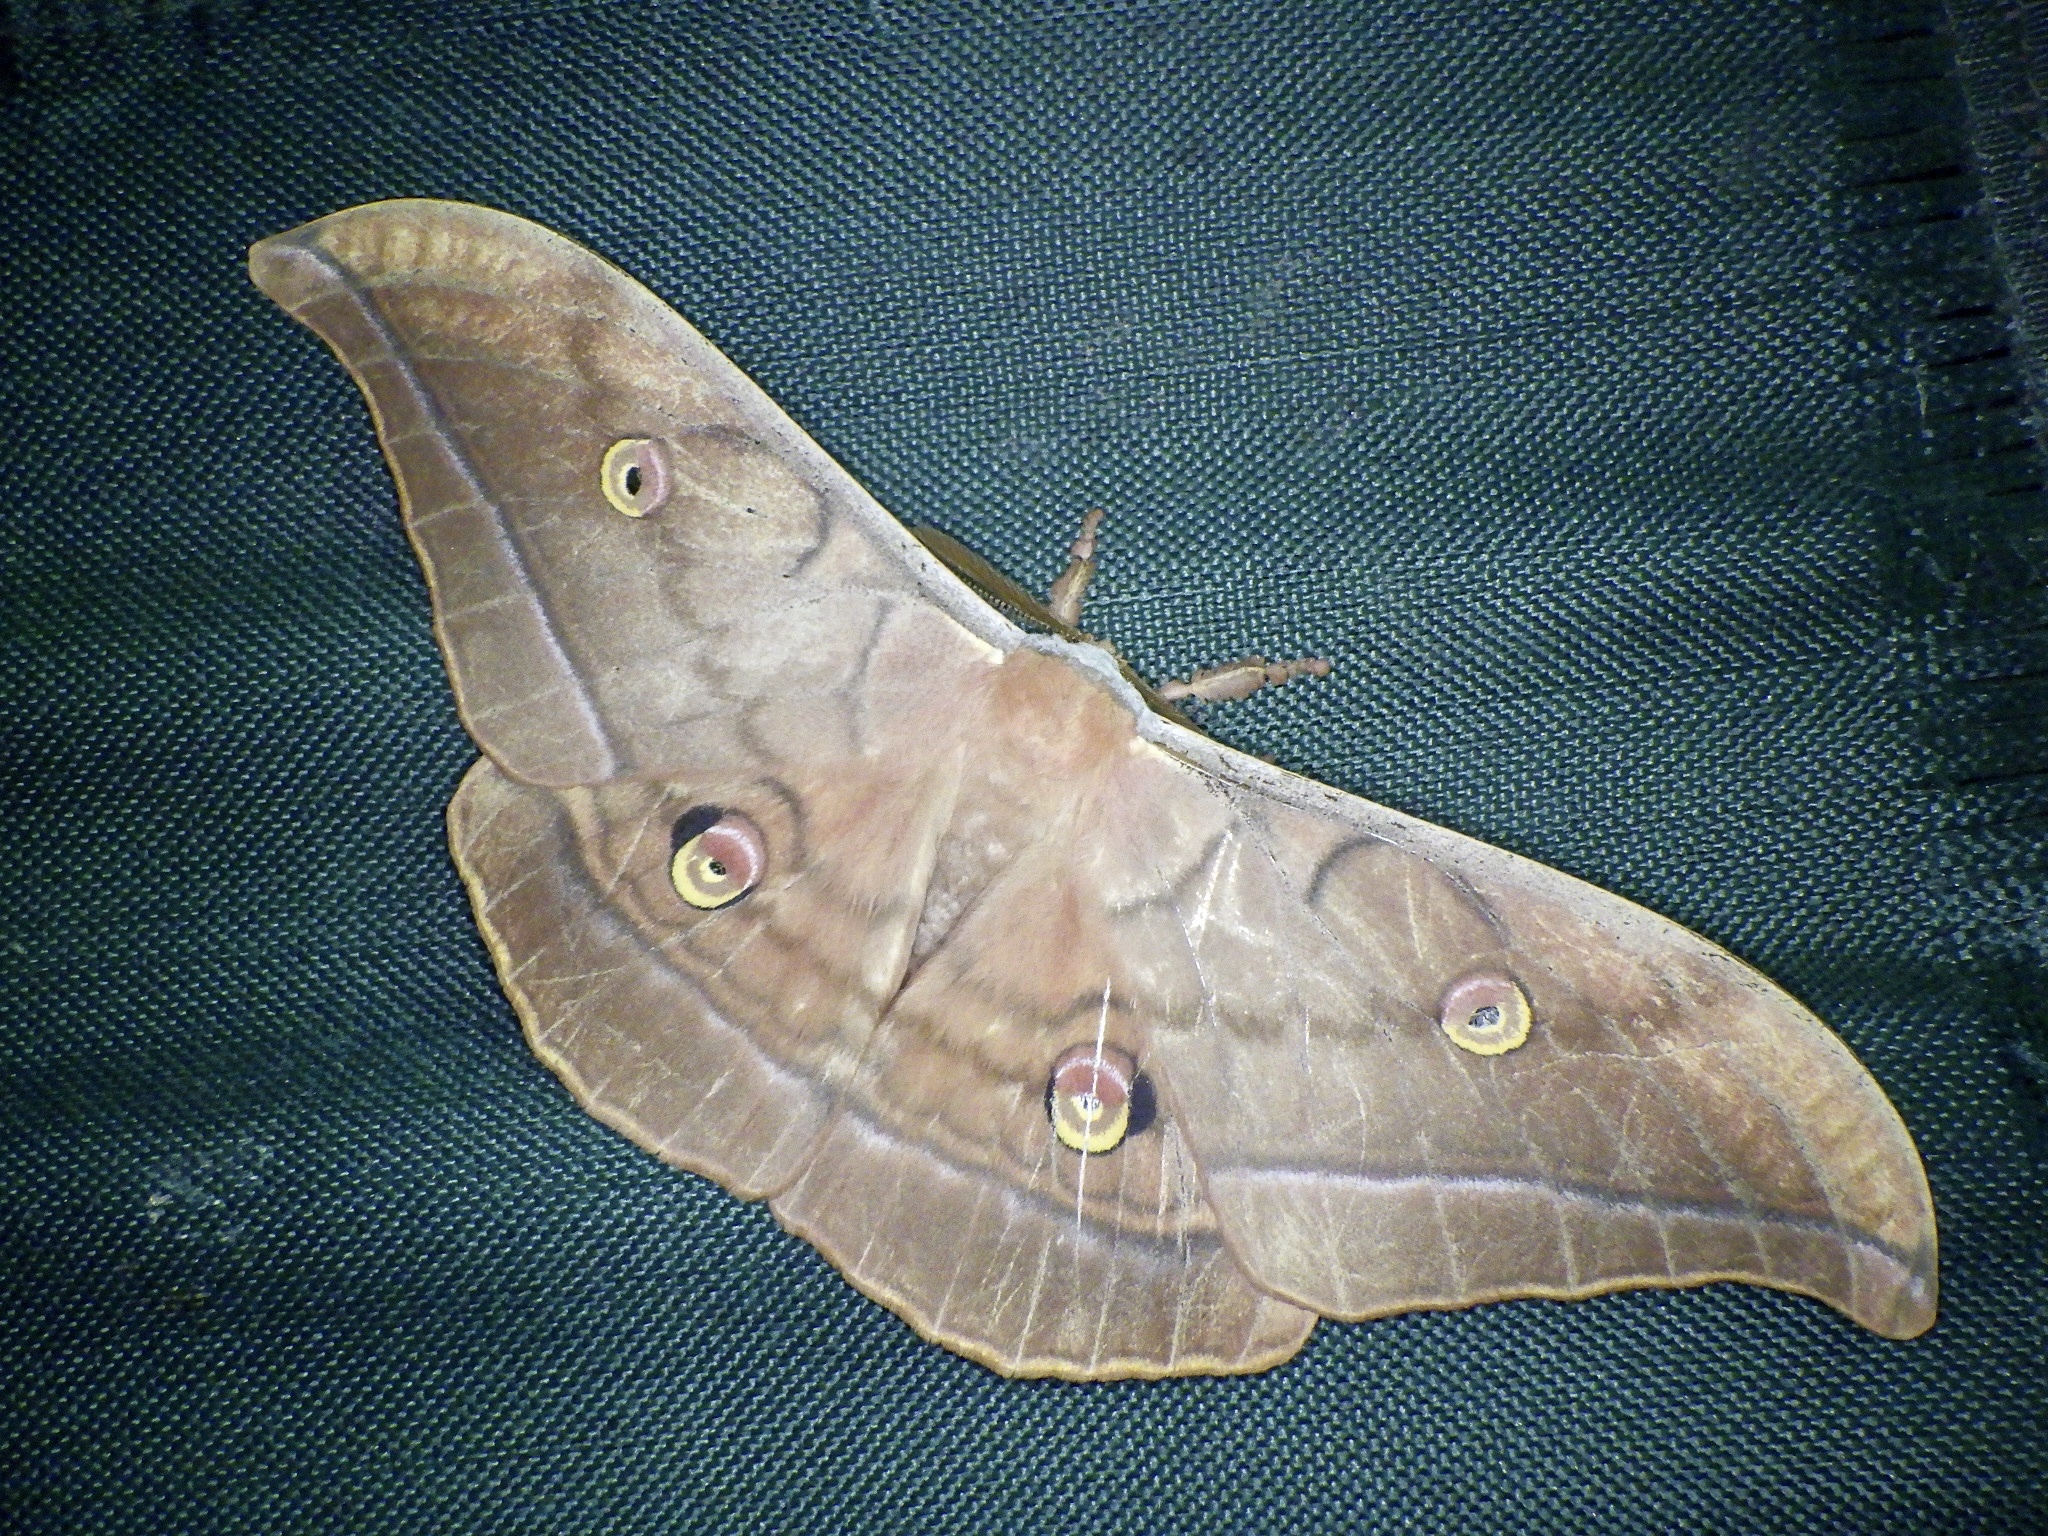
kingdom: Animalia
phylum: Arthropoda
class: Insecta
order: Lepidoptera
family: Saturniidae
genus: Antheraea
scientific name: Antheraea yamamai
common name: Japanese oak silk moth
